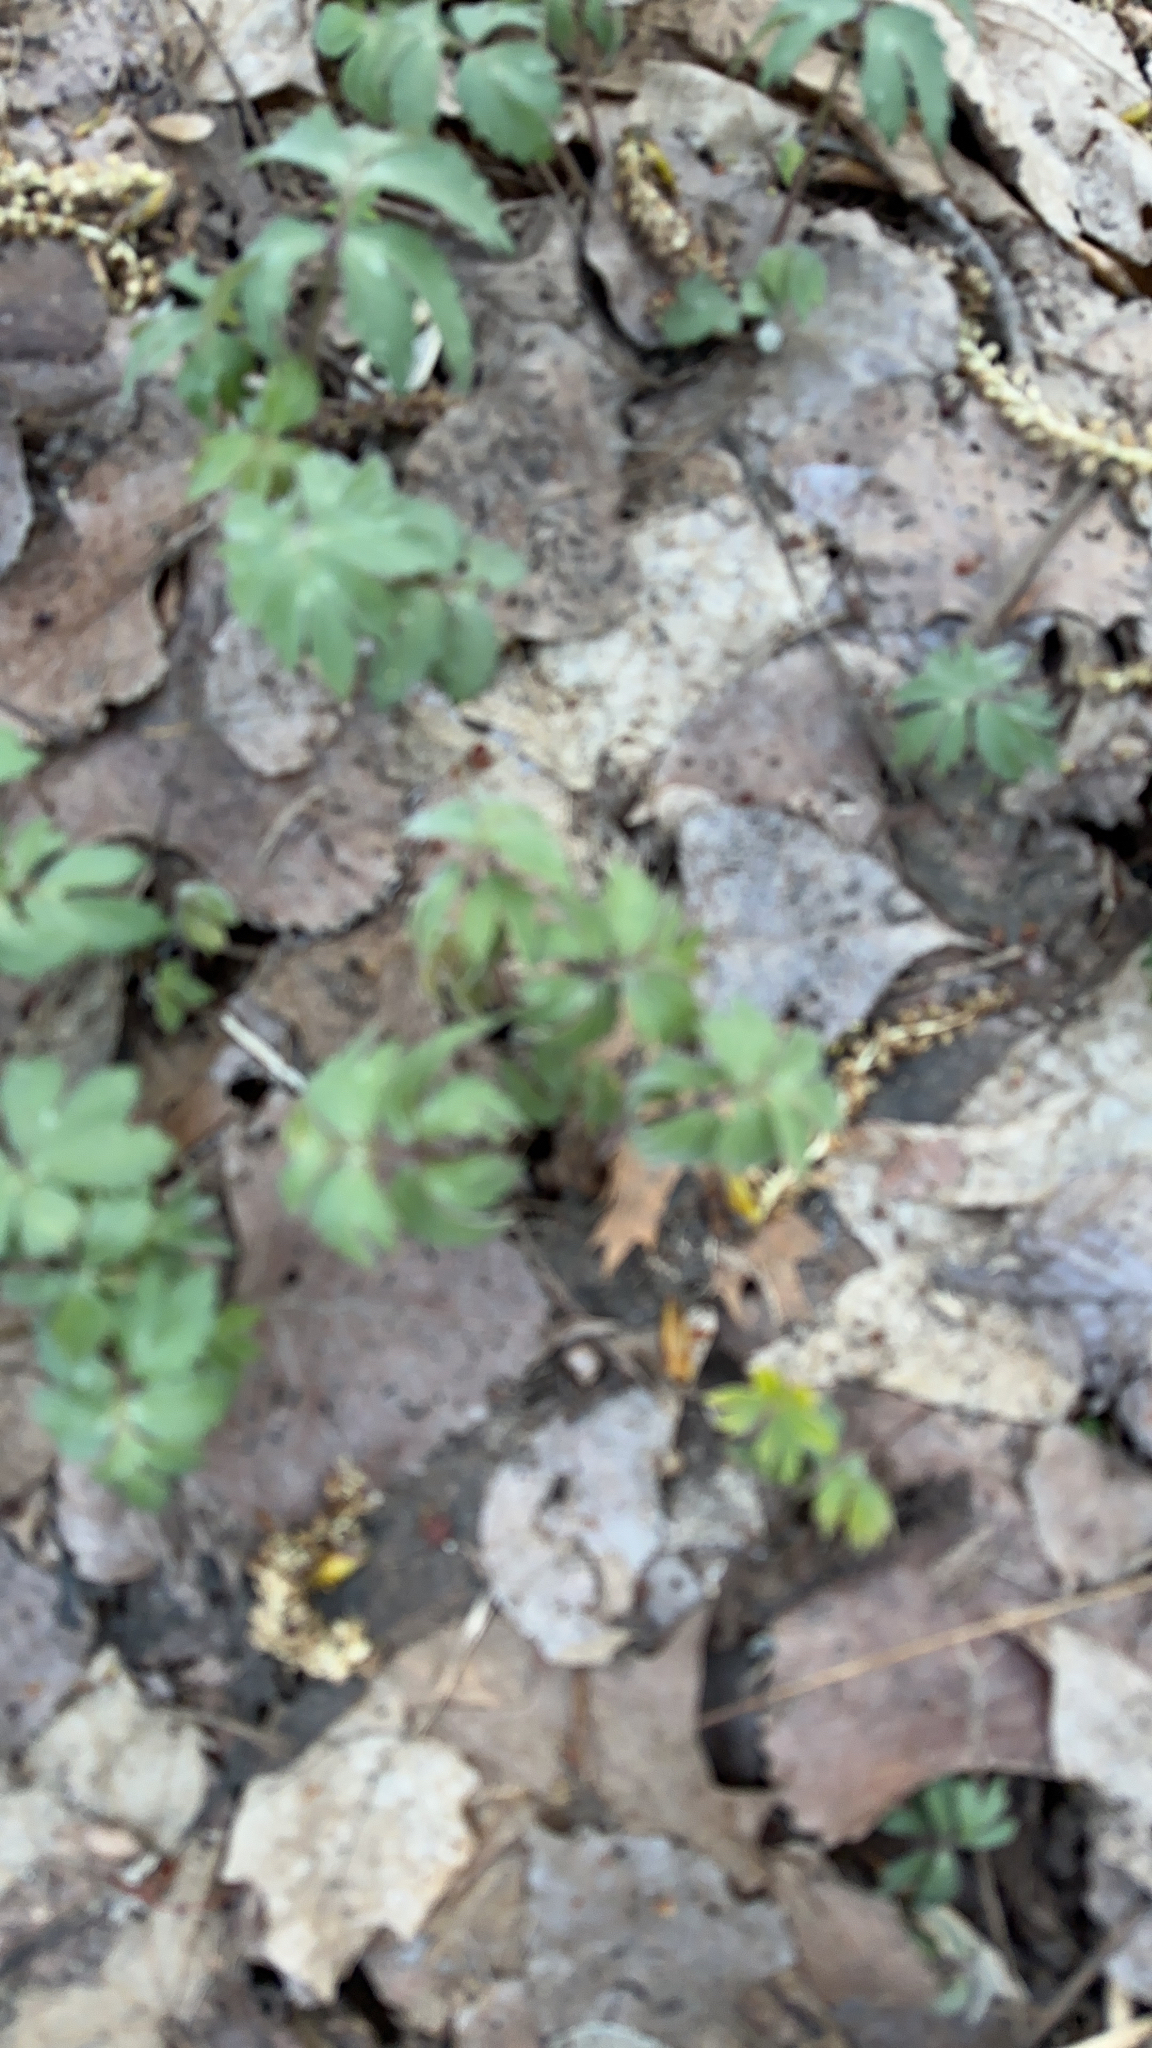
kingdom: Plantae
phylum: Tracheophyta
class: Magnoliopsida
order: Boraginales
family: Hydrophyllaceae
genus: Hydrophyllum
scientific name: Hydrophyllum virginianum
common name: Virginia waterleaf
